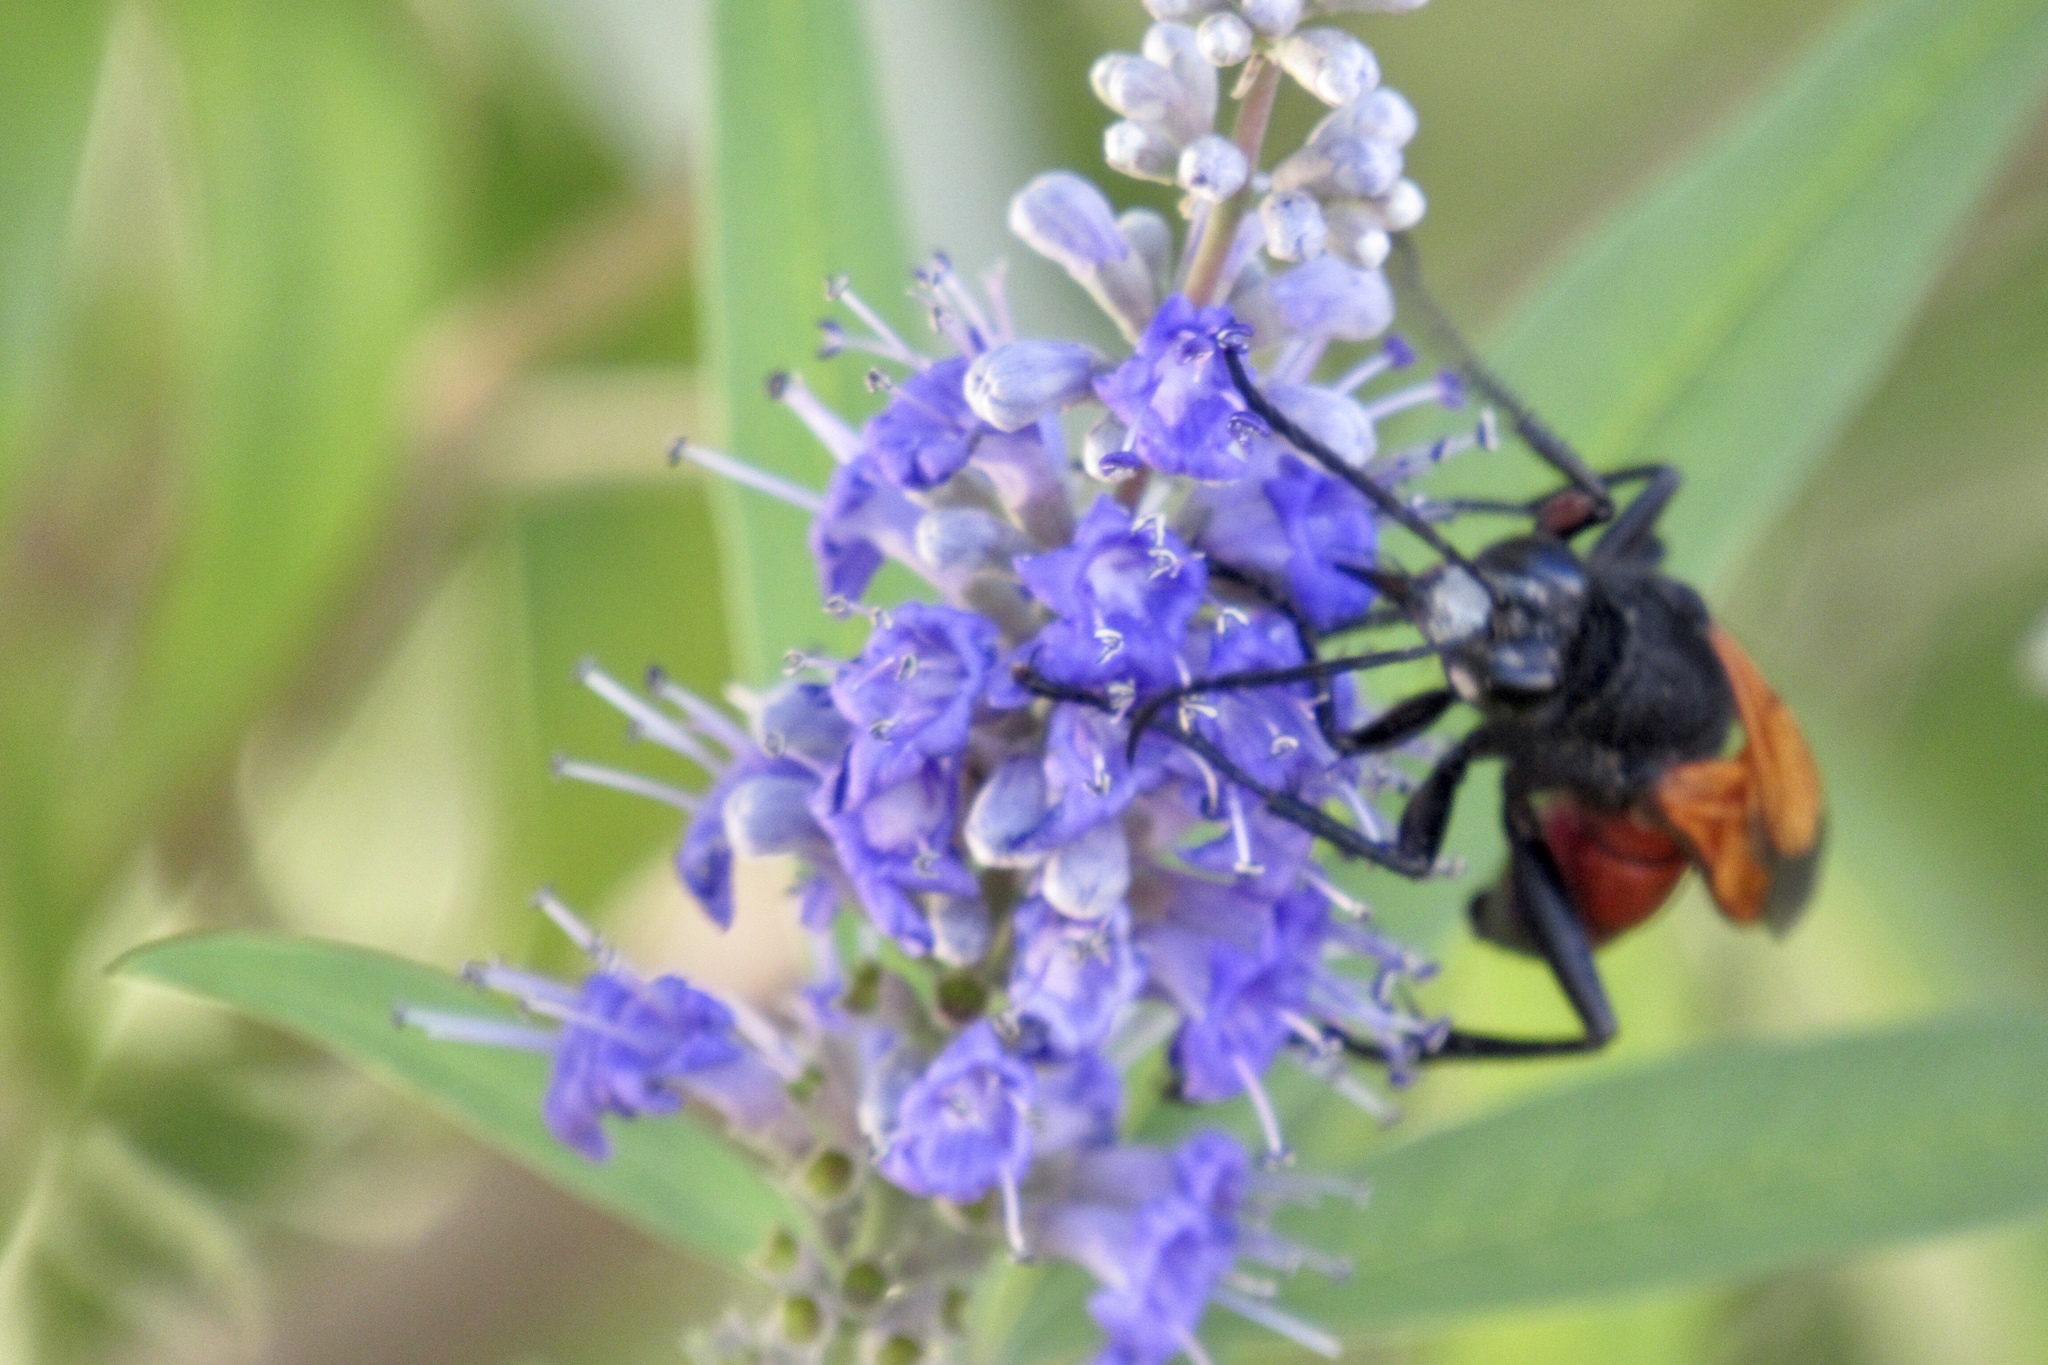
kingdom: Animalia
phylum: Arthropoda
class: Insecta
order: Hymenoptera
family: Sphecidae
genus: Sphex
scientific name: Sphex tepanecus
